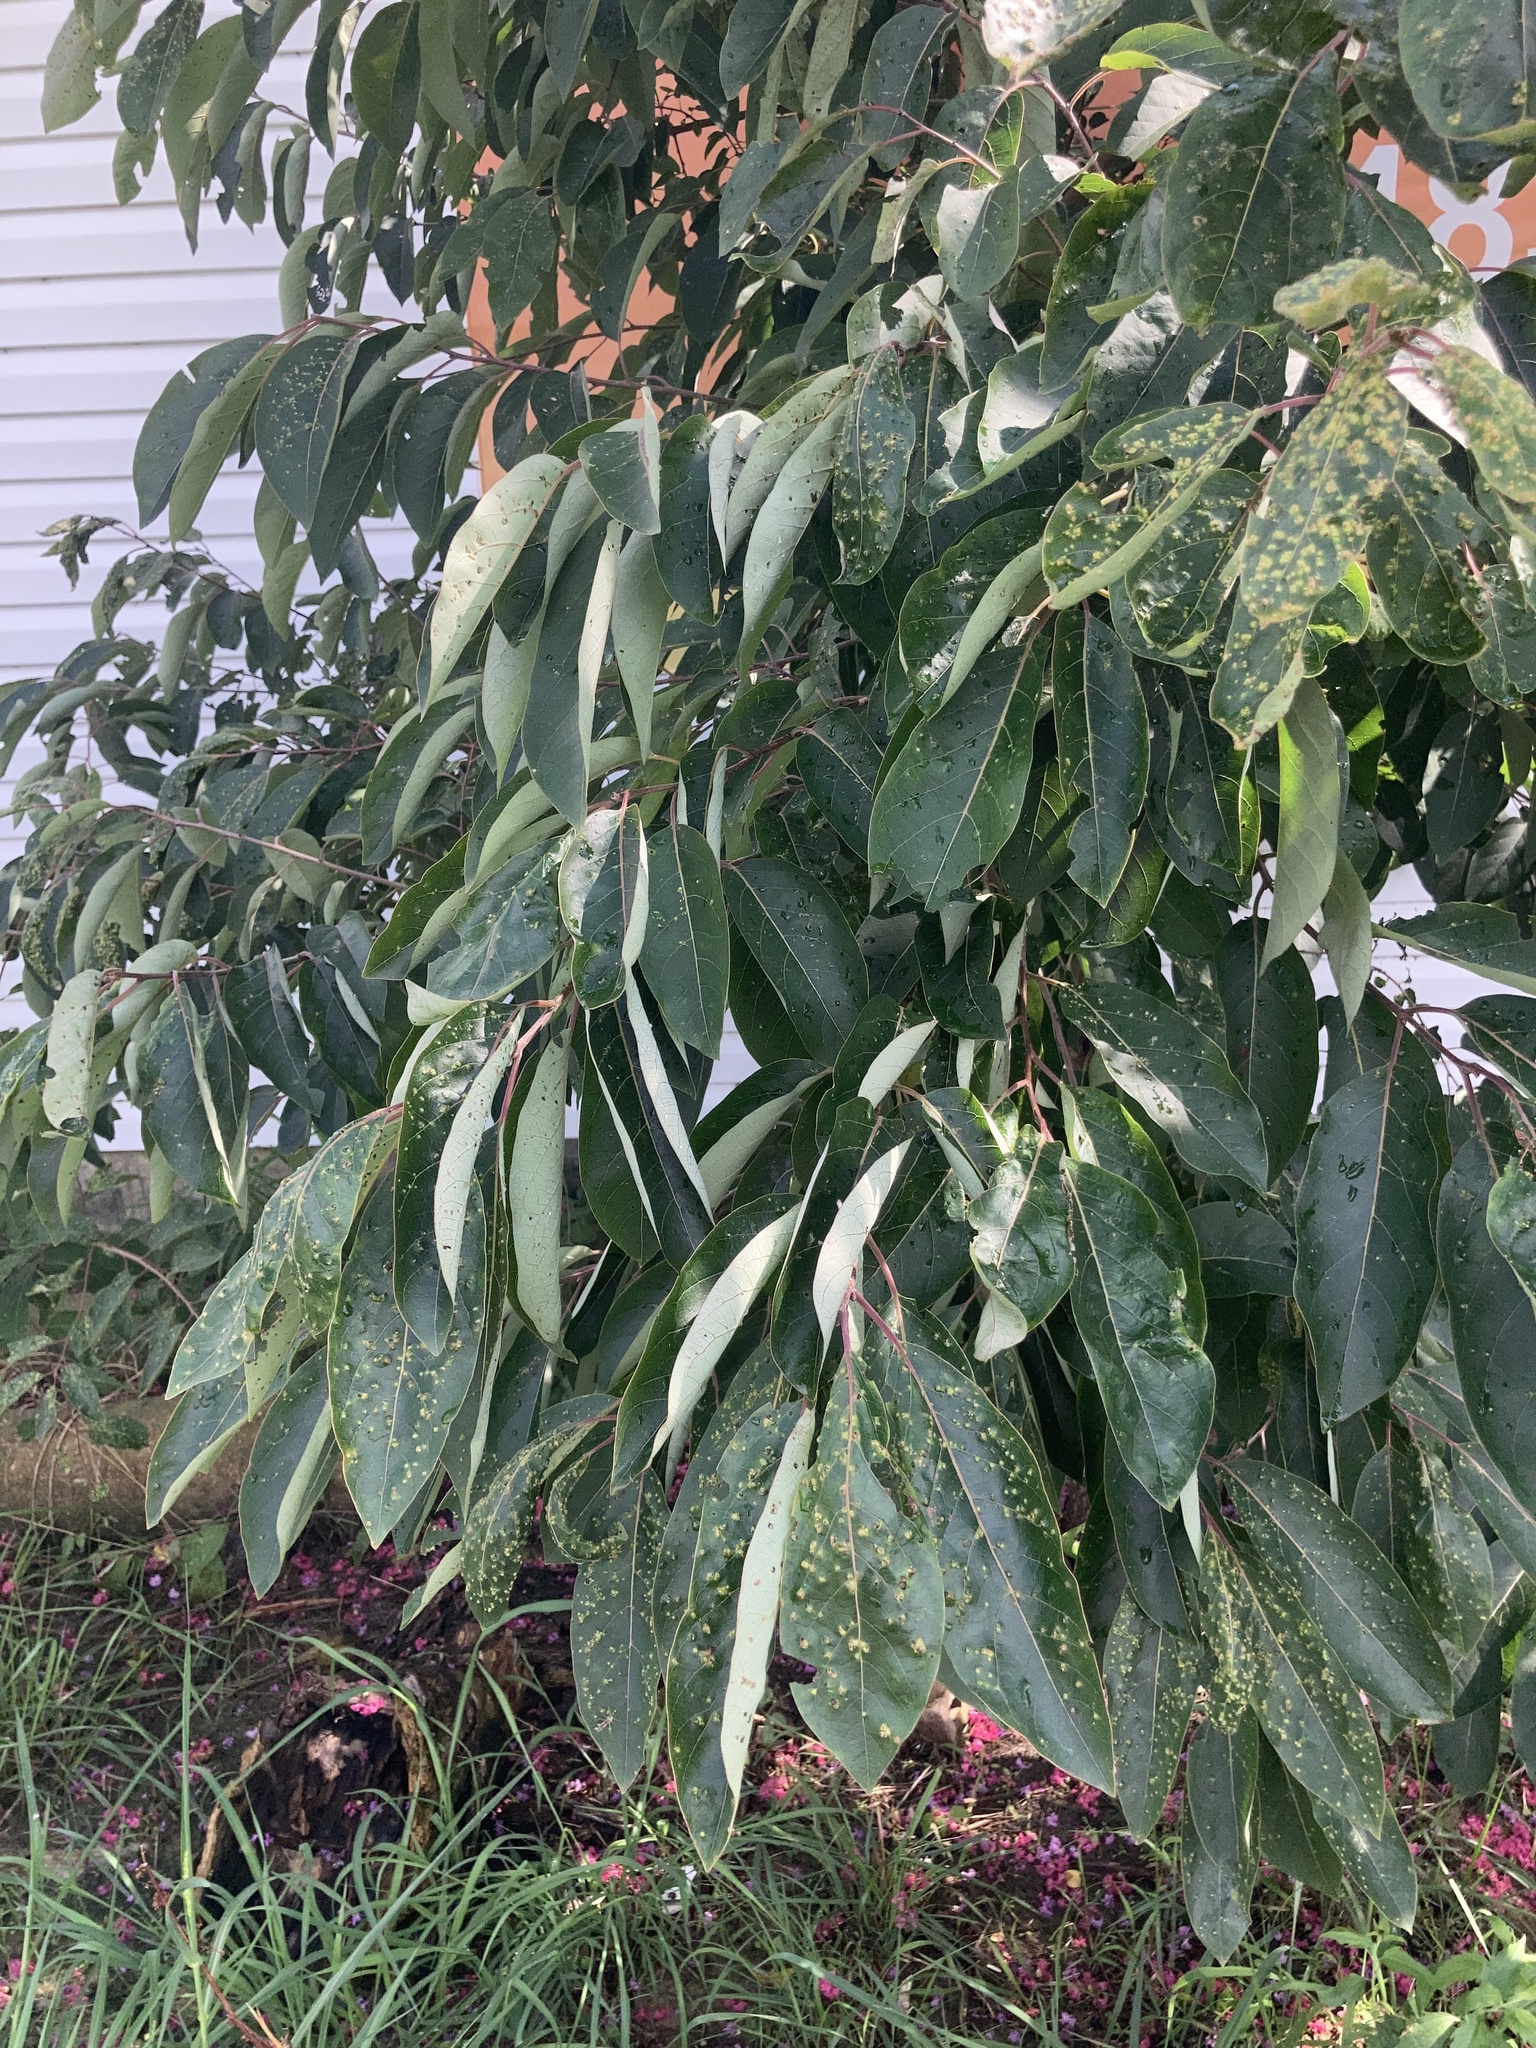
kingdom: Plantae
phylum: Tracheophyta
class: Magnoliopsida
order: Ericales
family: Ebenaceae
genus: Diospyros
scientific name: Diospyros virginiana
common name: Persimmon
